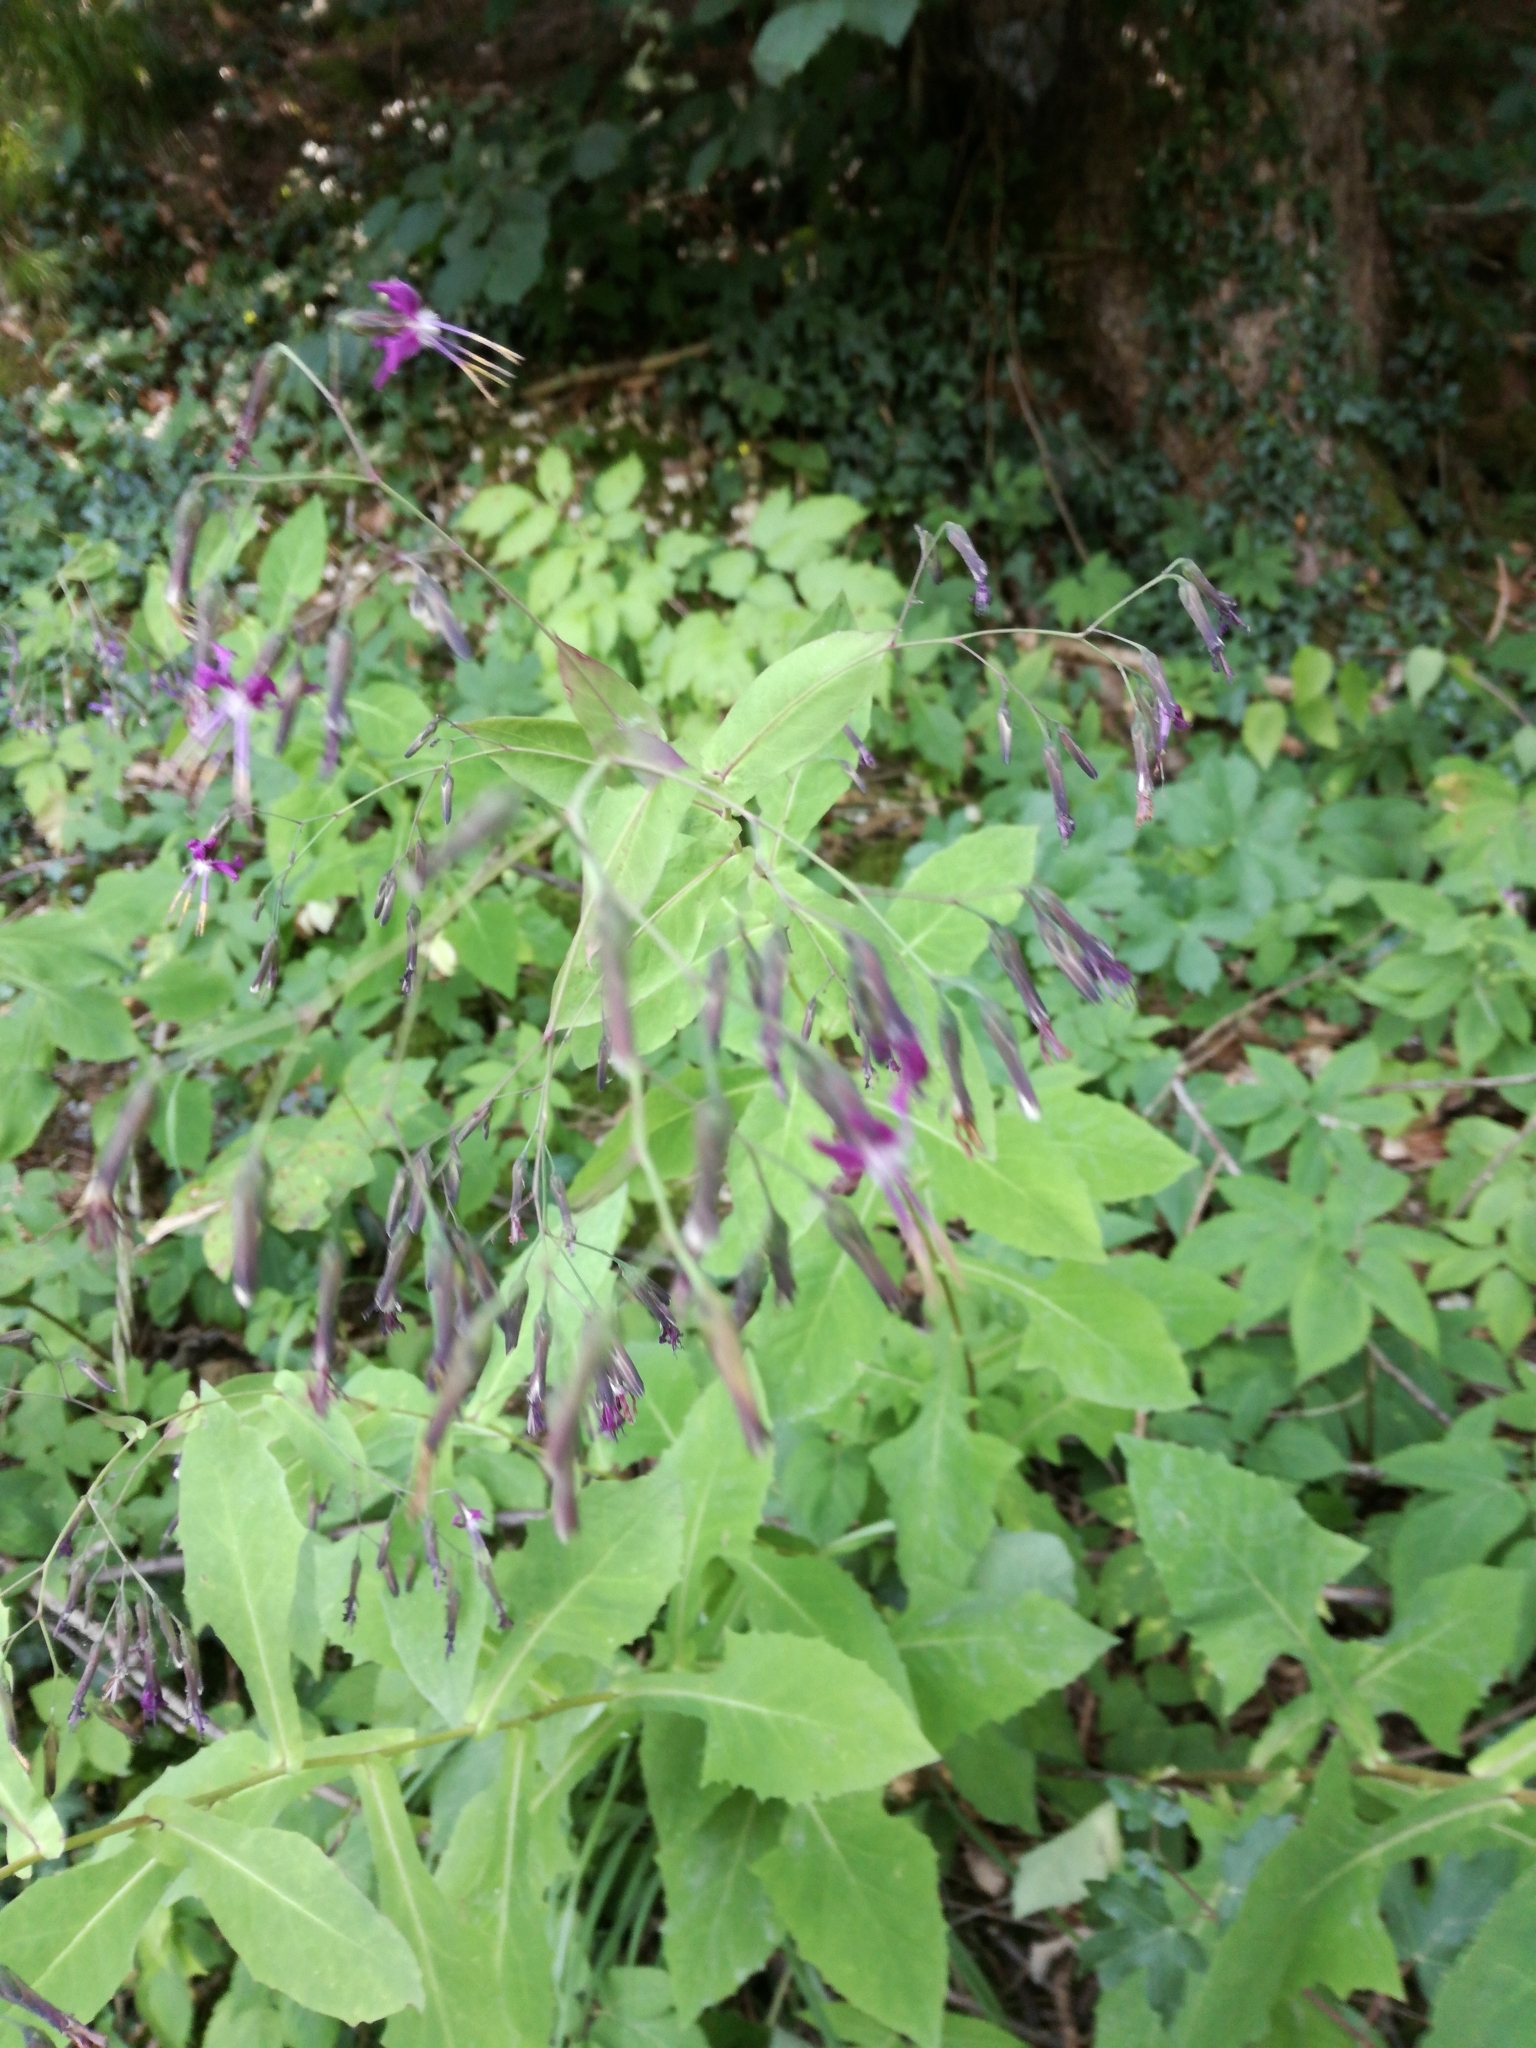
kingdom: Plantae
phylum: Tracheophyta
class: Magnoliopsida
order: Asterales
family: Asteraceae
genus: Prenanthes
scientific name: Prenanthes purpurea
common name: Purple lettuce
